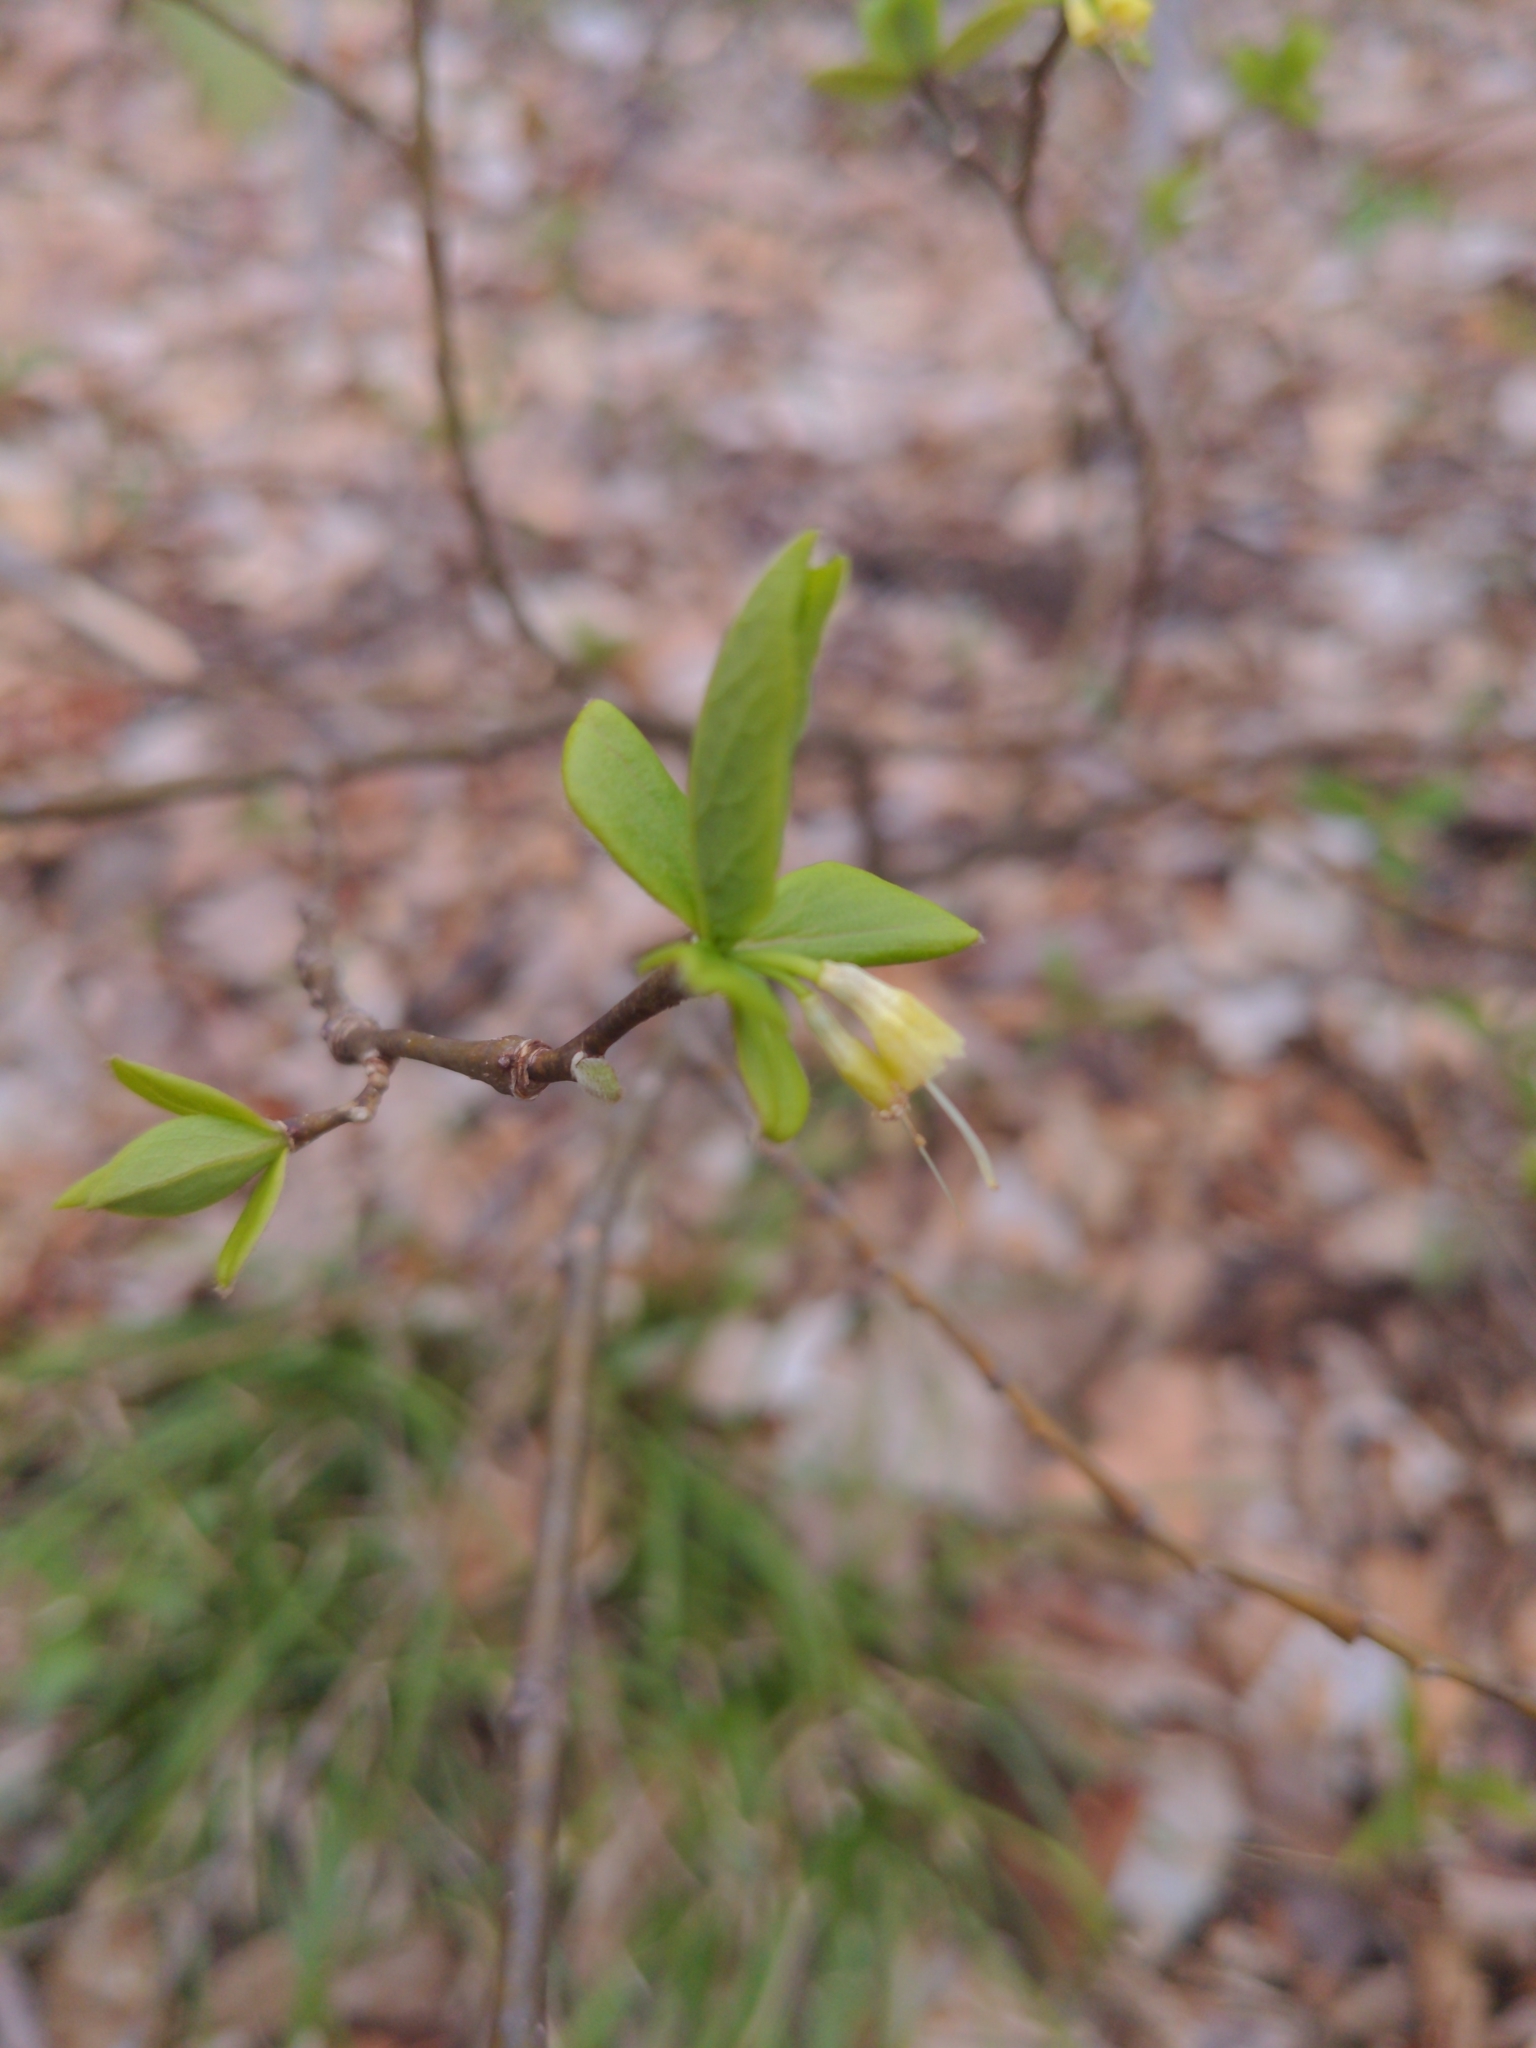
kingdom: Plantae
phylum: Tracheophyta
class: Magnoliopsida
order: Malvales
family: Thymelaeaceae
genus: Dirca
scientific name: Dirca palustris
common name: Leatherwood
